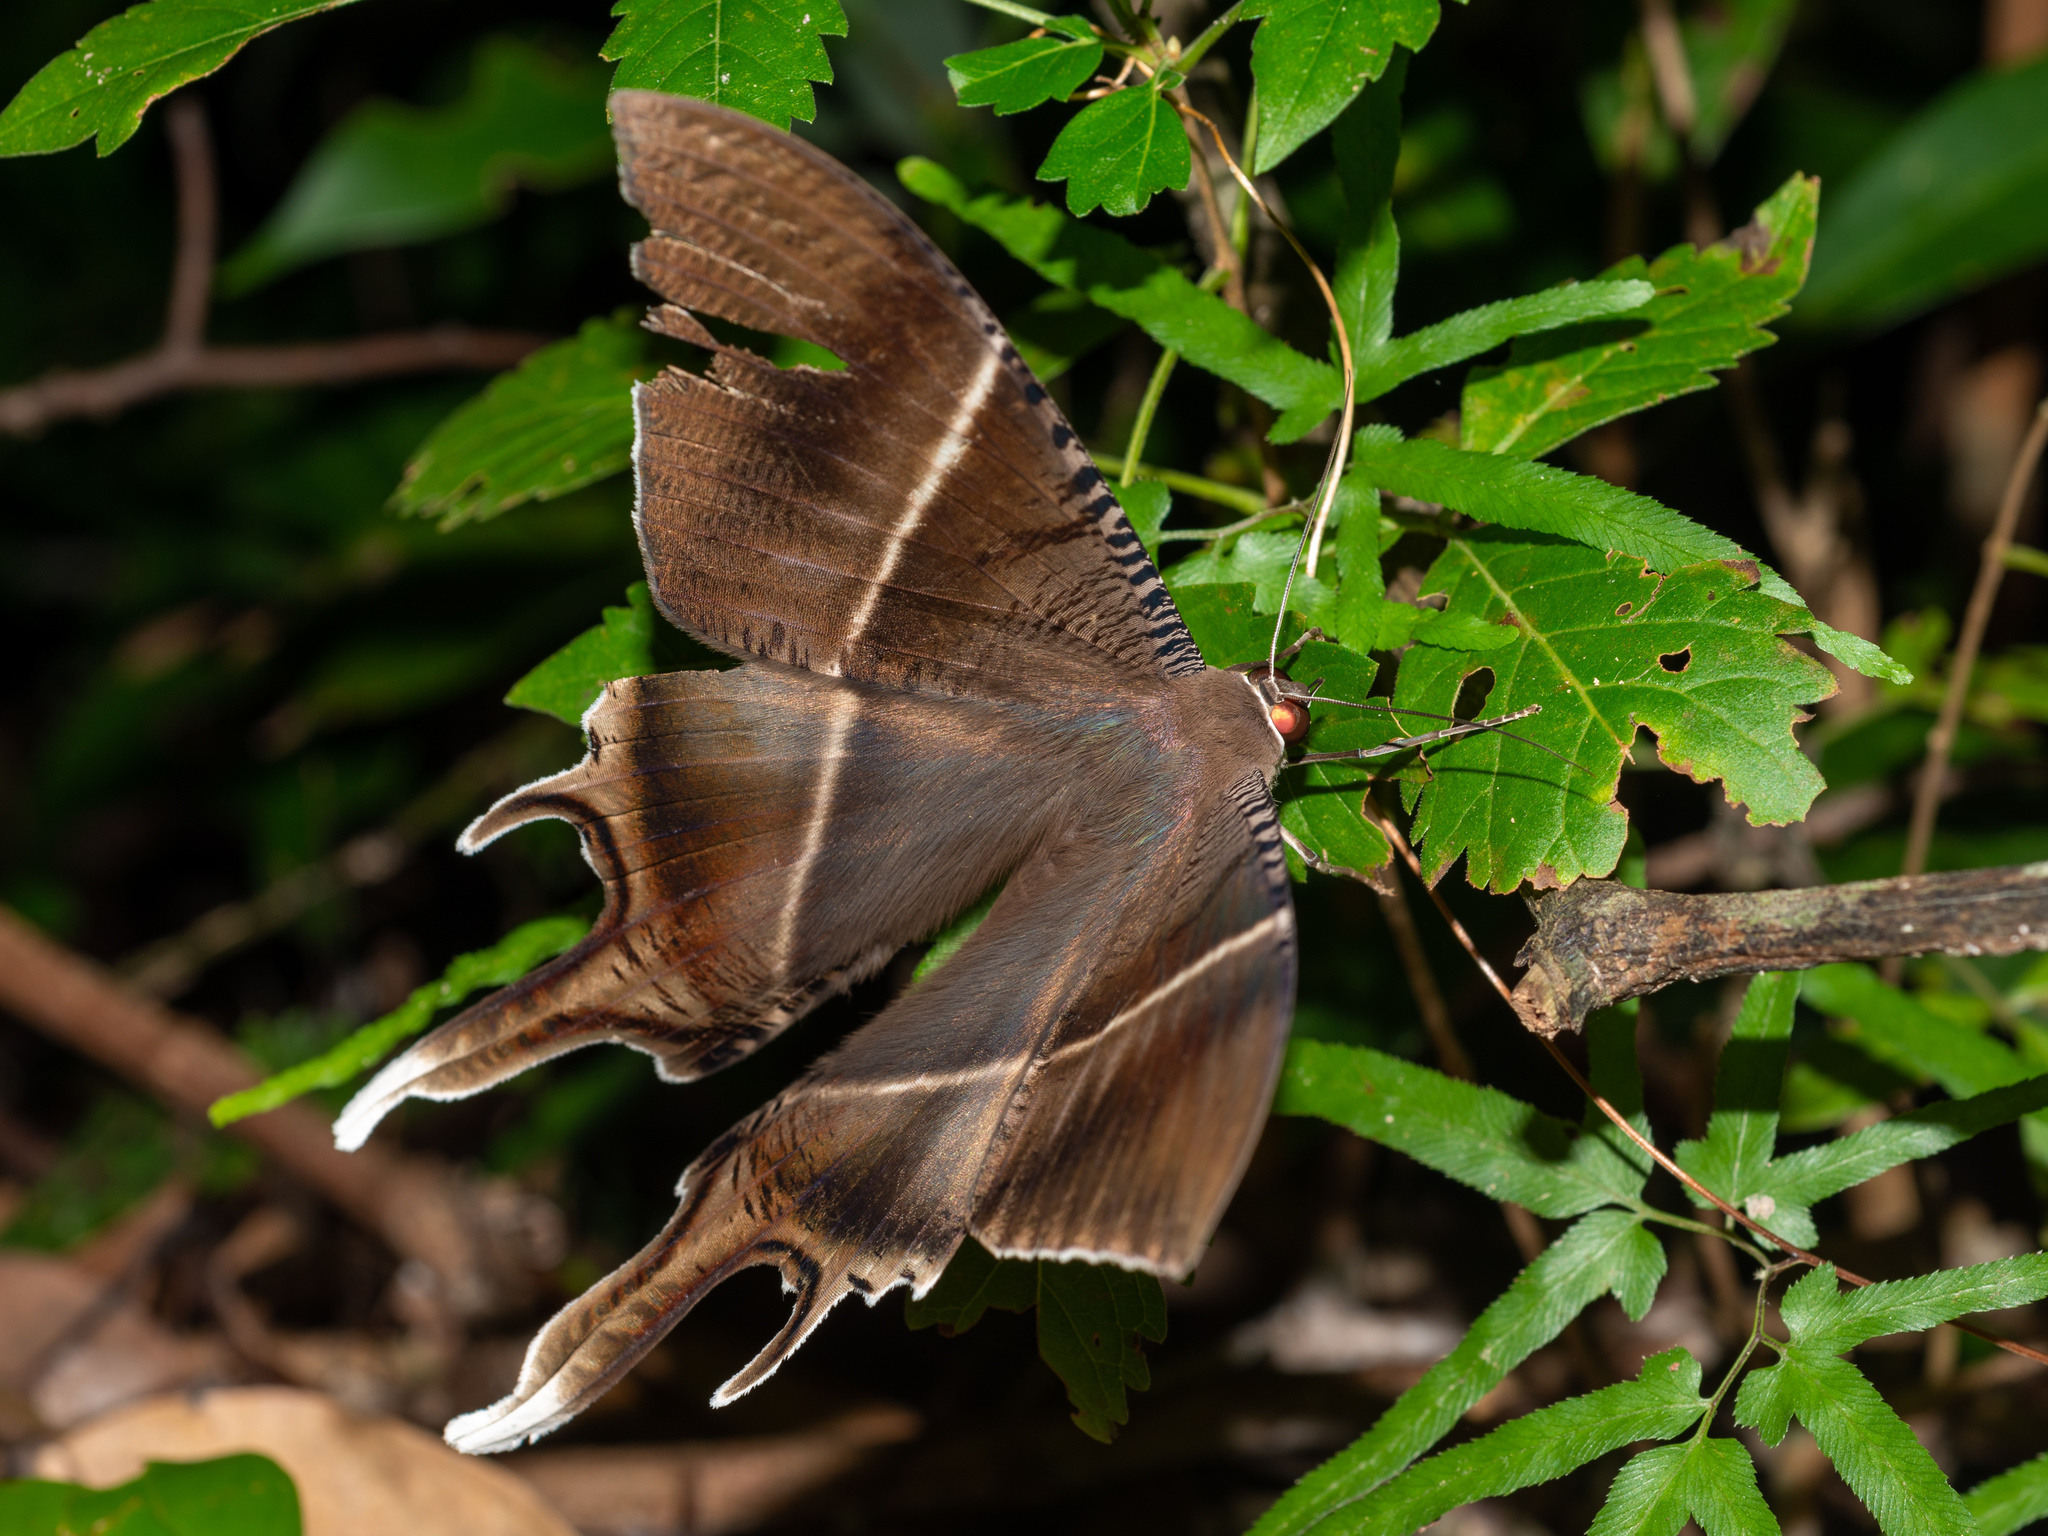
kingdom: Animalia
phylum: Arthropoda
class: Insecta
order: Lepidoptera
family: Uraniidae
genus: Lyssa
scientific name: Lyssa zampa
